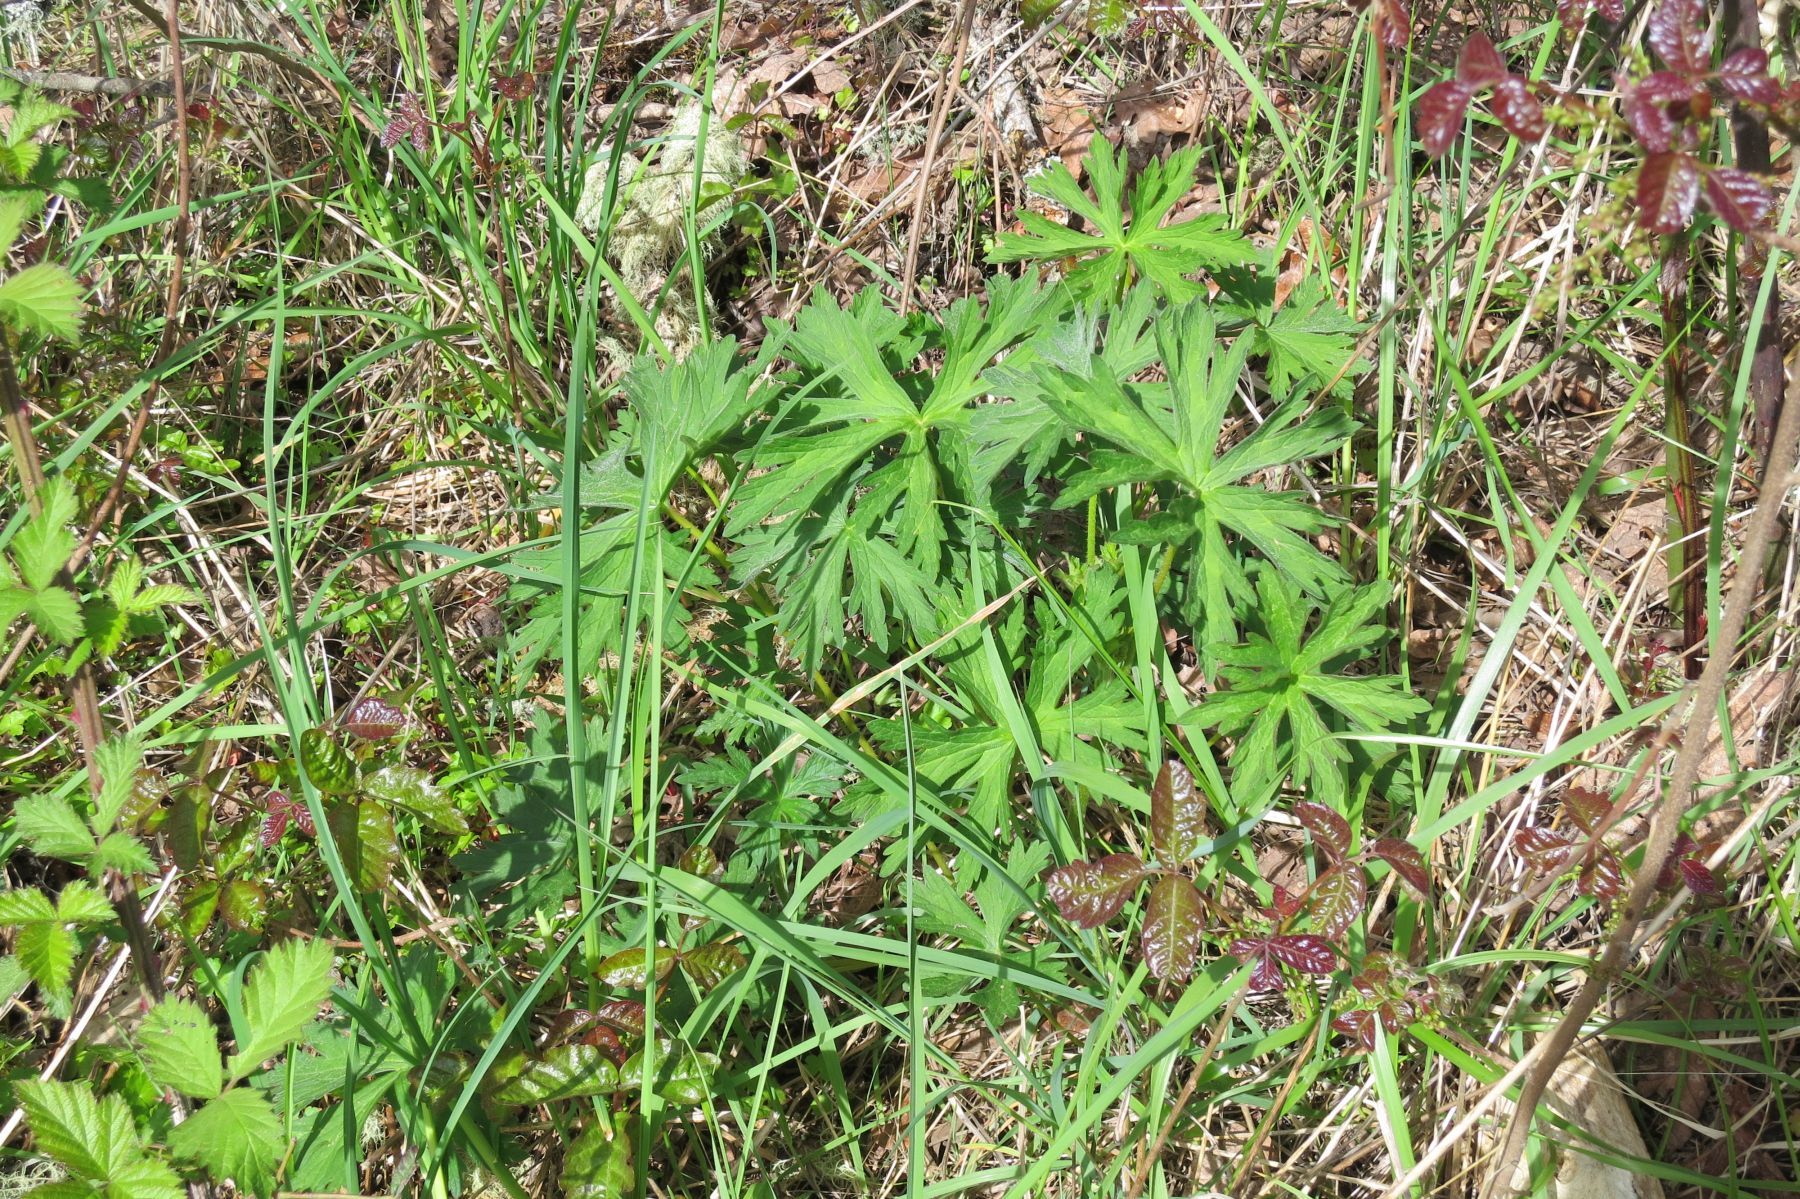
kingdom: Plantae
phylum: Tracheophyta
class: Magnoliopsida
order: Geraniales
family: Geraniaceae
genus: Geranium
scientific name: Geranium oreganum
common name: Oregon crane's-bill
